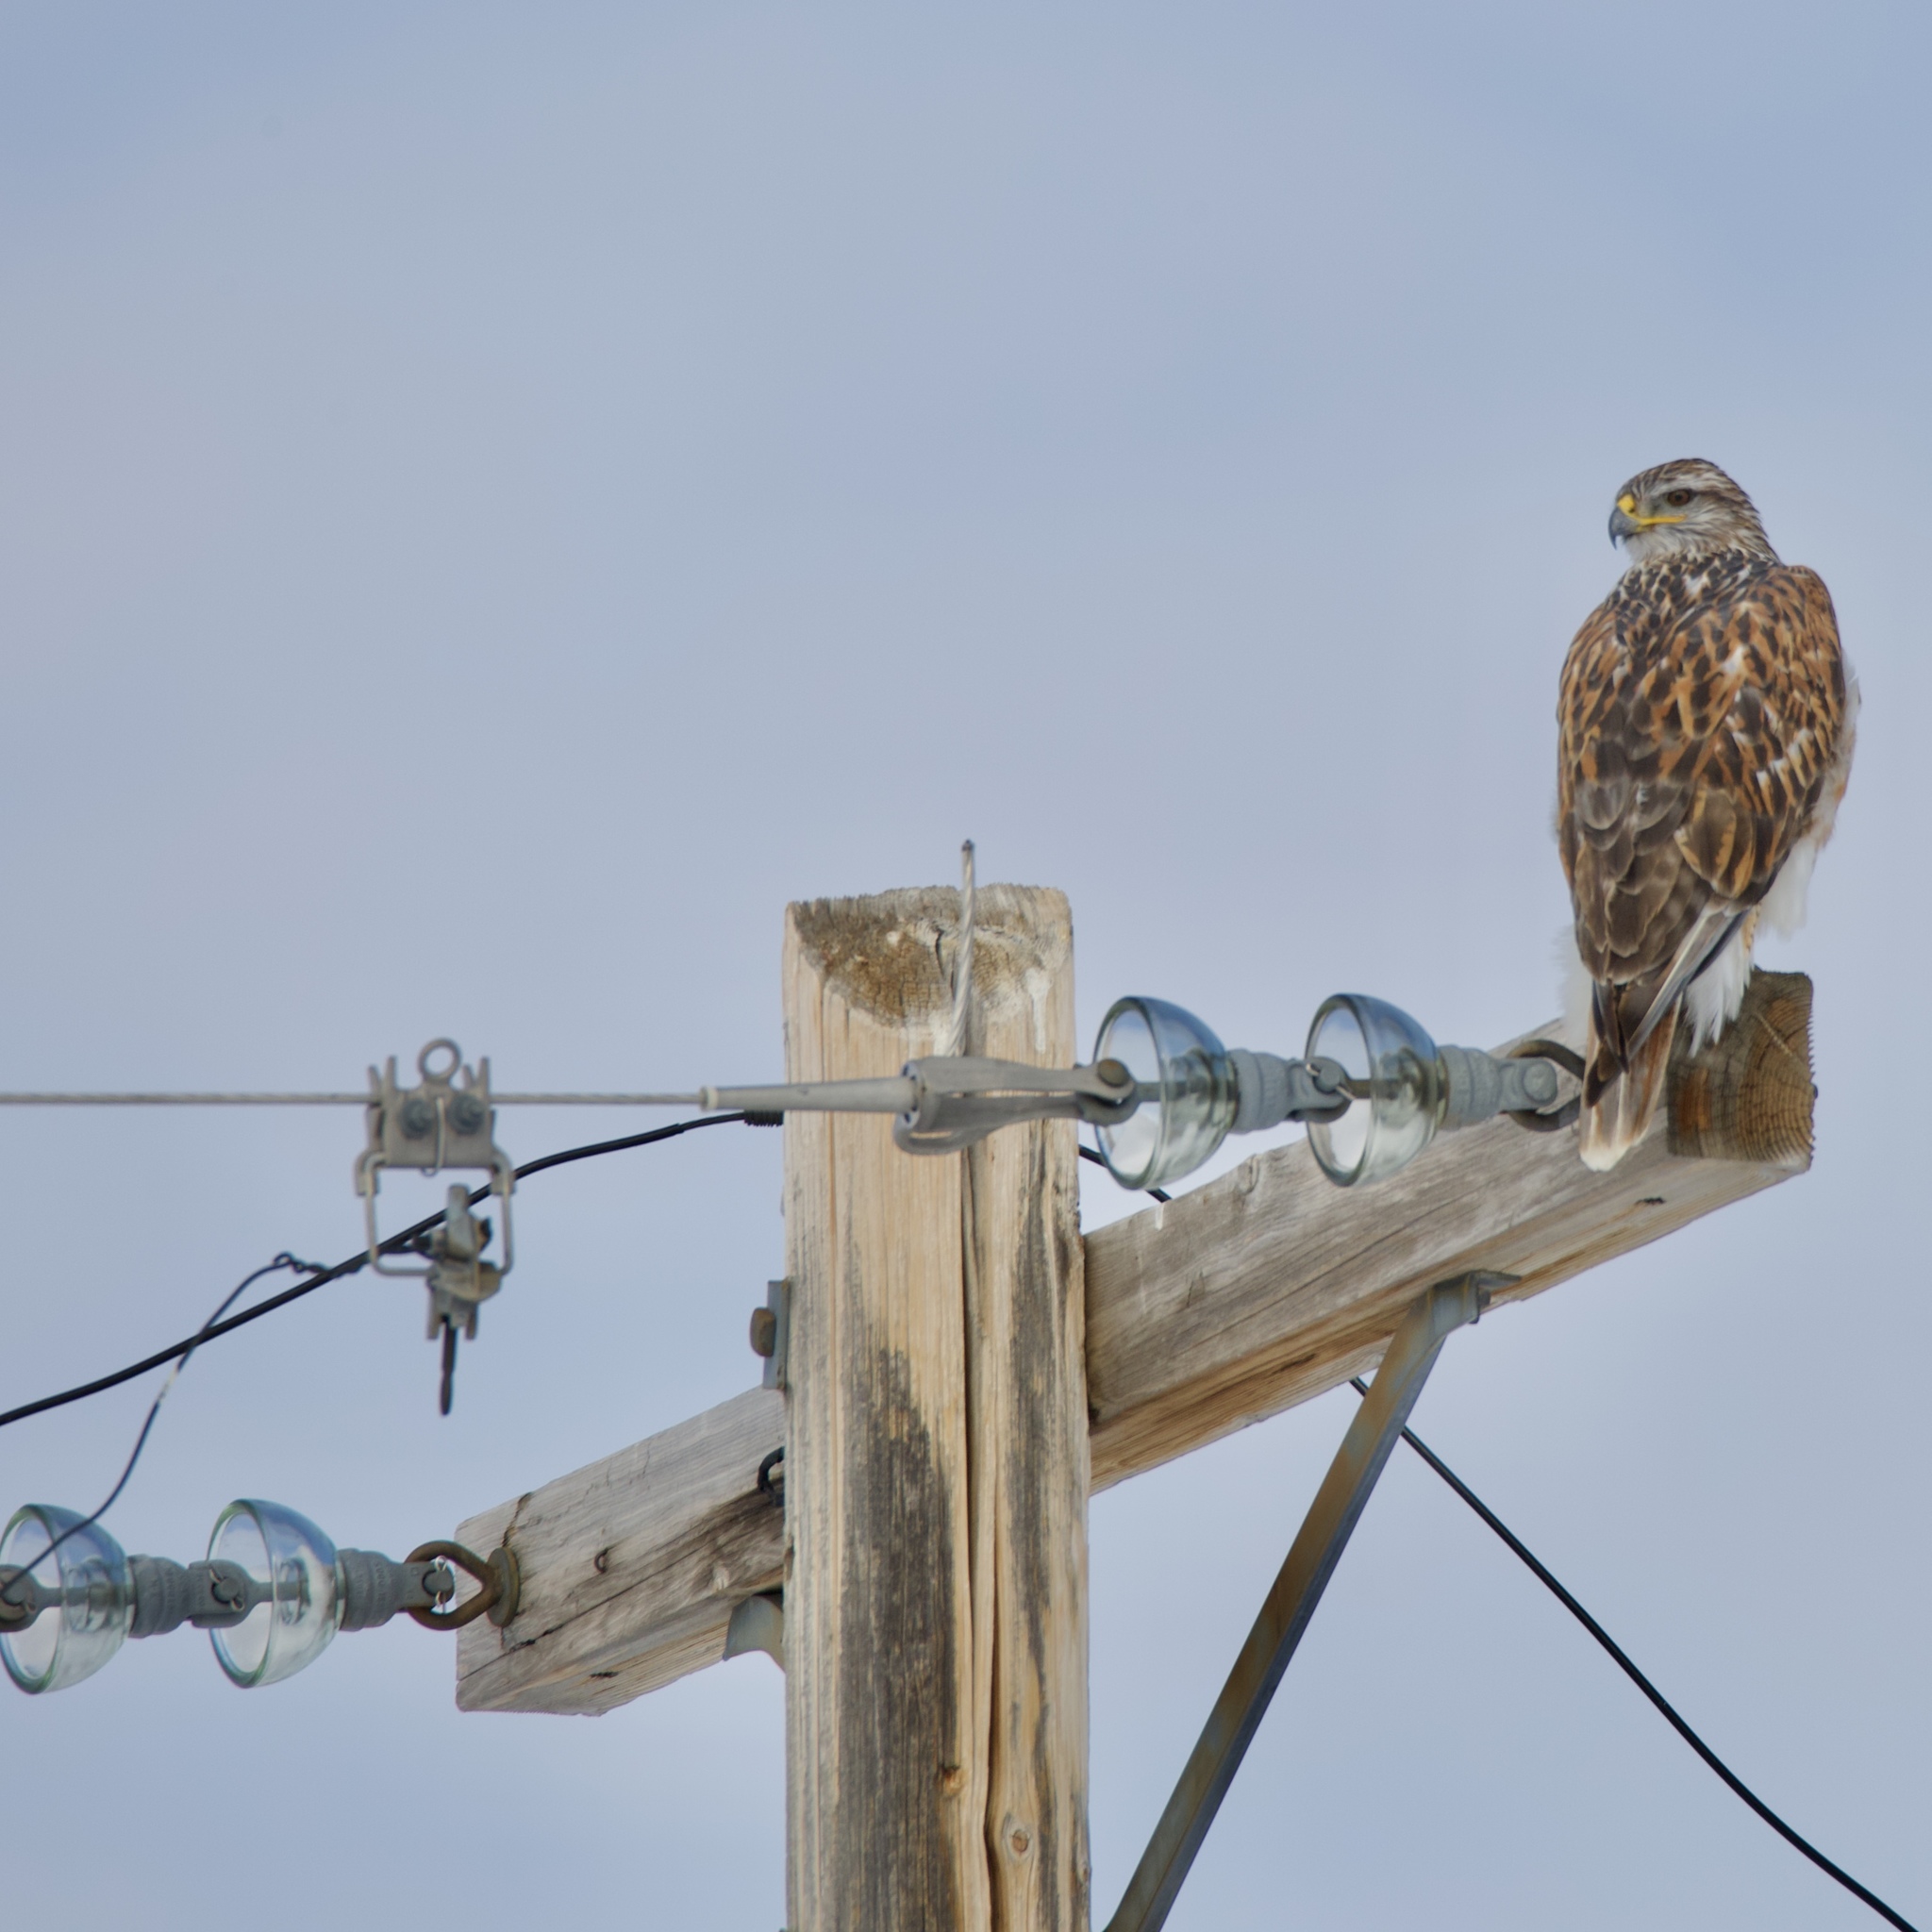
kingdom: Animalia
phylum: Chordata
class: Aves
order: Accipitriformes
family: Accipitridae
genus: Buteo
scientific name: Buteo regalis
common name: Ferruginous hawk
